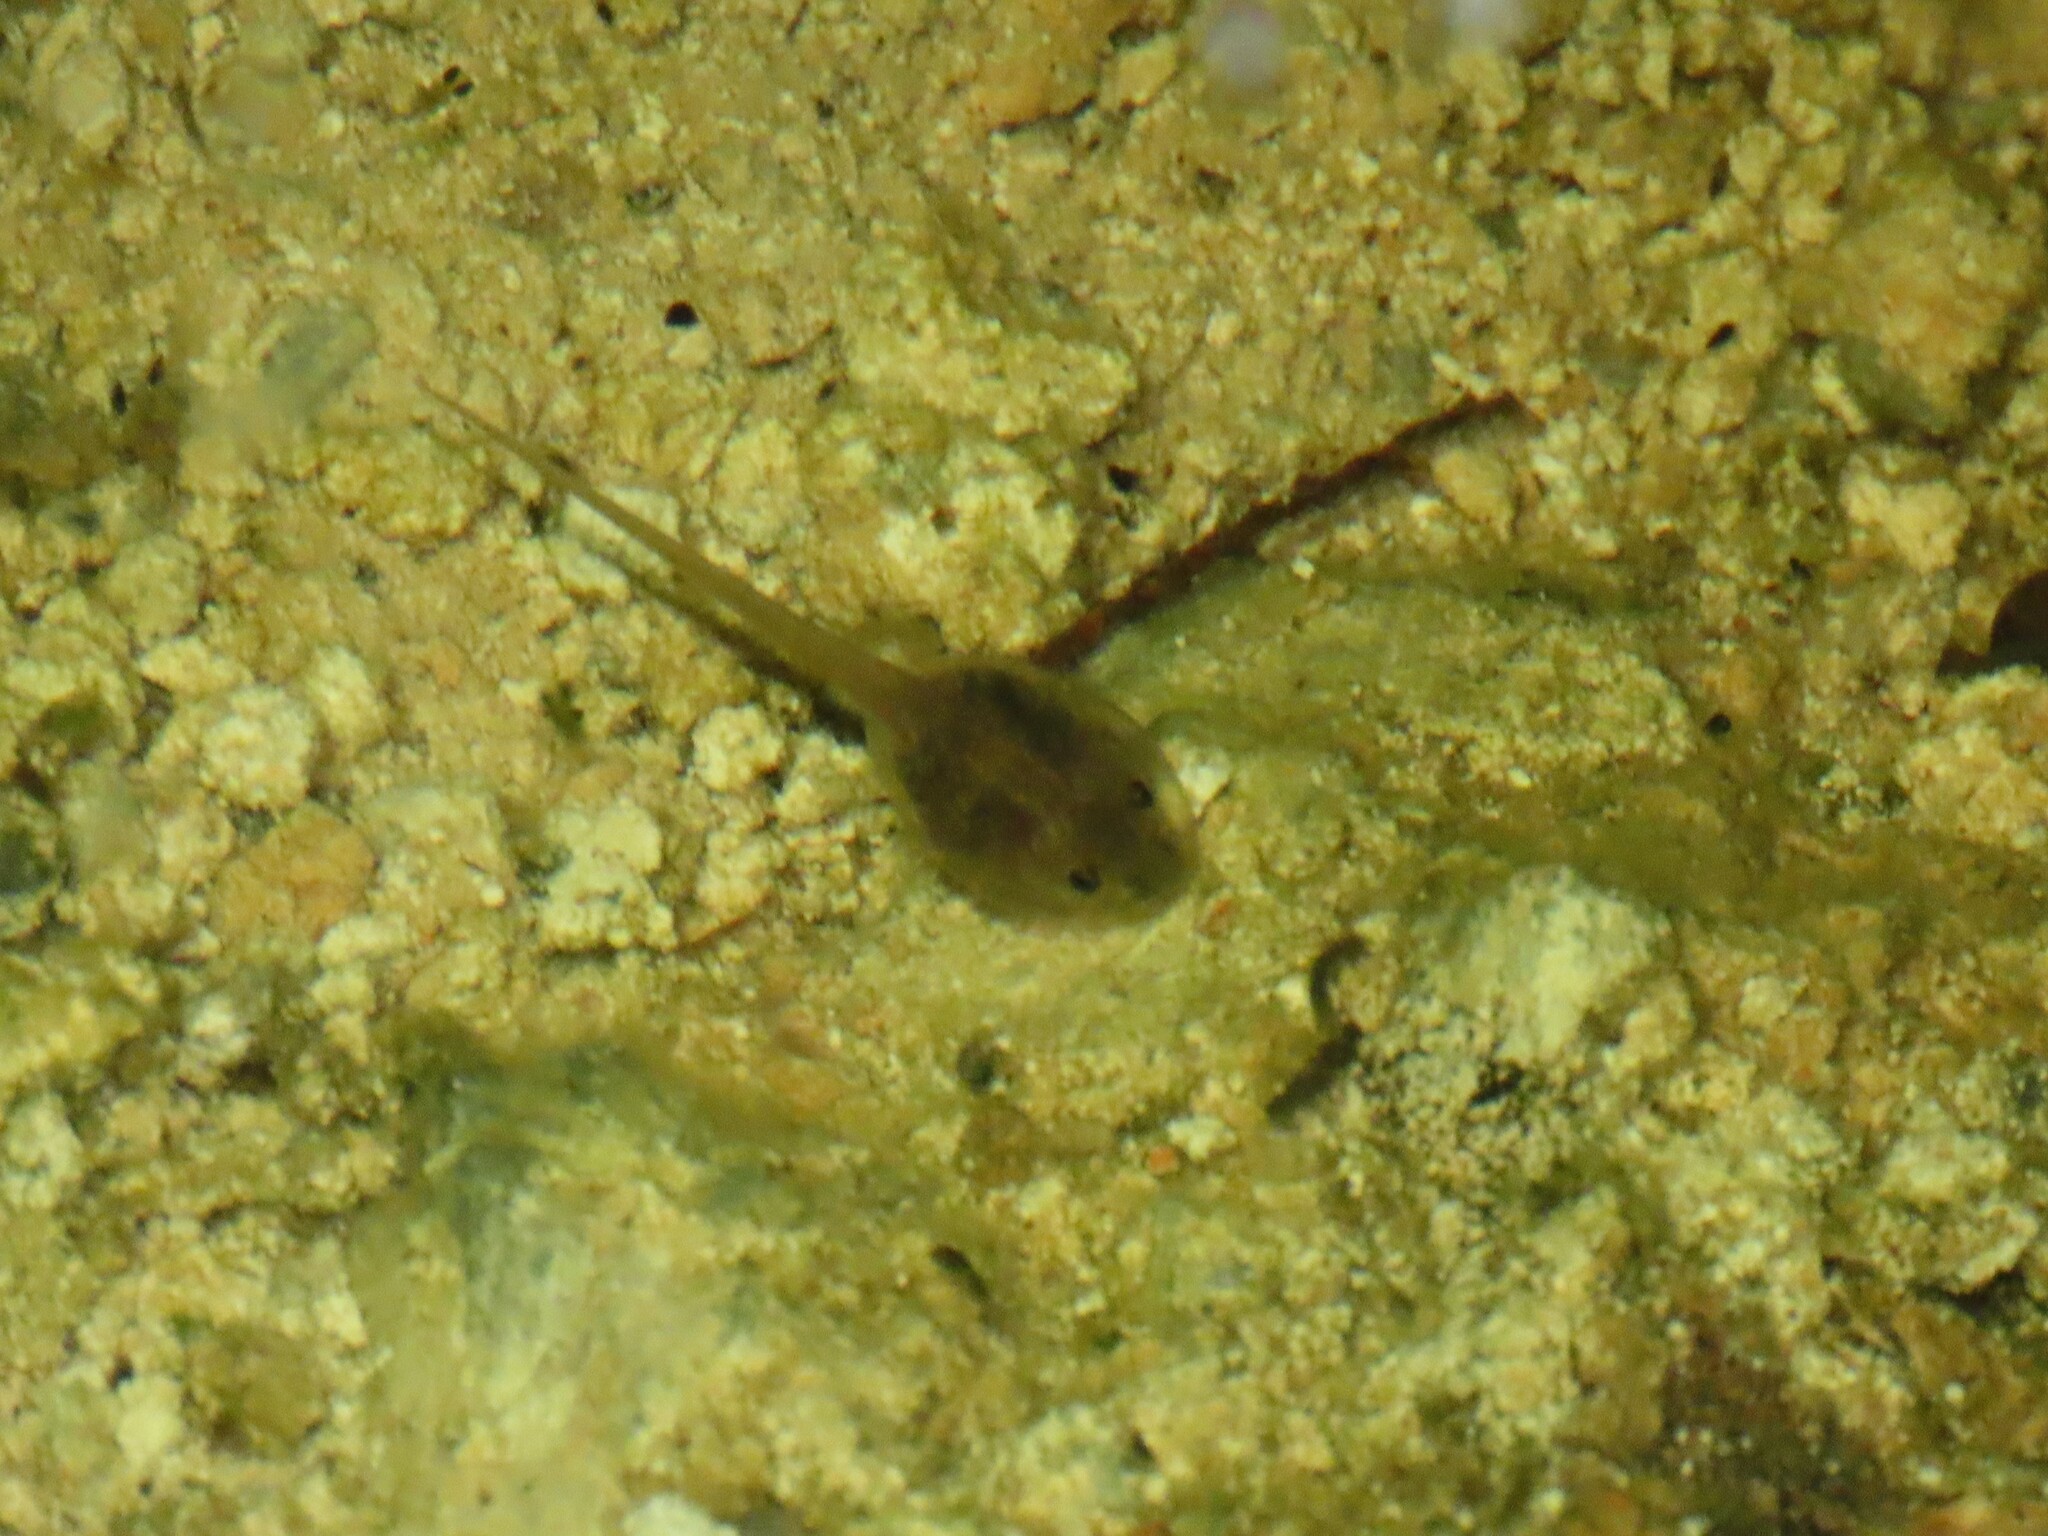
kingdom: Animalia
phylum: Chordata
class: Amphibia
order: Anura
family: Pelobatidae
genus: Pelobates
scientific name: Pelobates cultripes
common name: Western spadefoot
